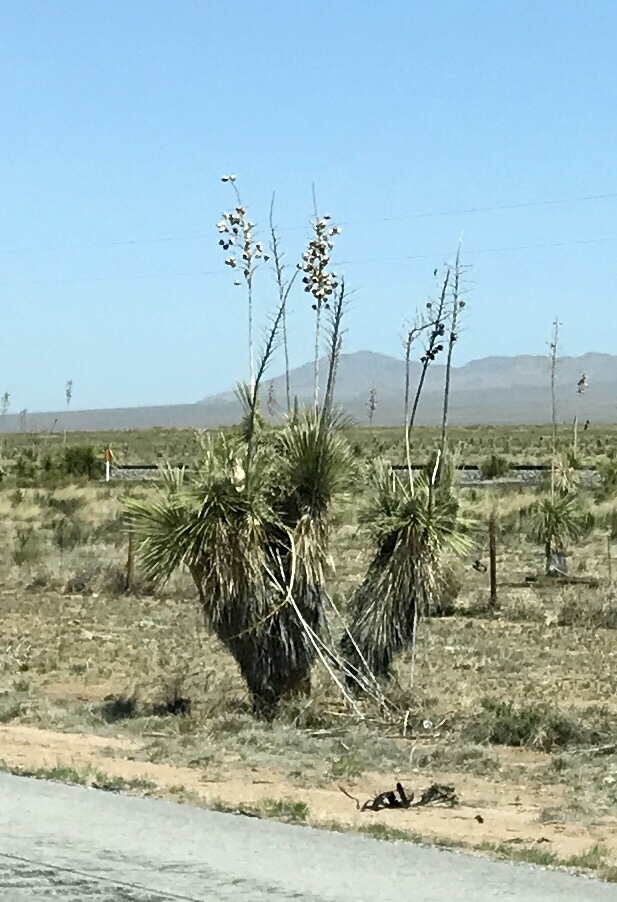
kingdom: Plantae
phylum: Tracheophyta
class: Liliopsida
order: Asparagales
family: Asparagaceae
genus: Yucca
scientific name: Yucca elata
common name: Palmella
